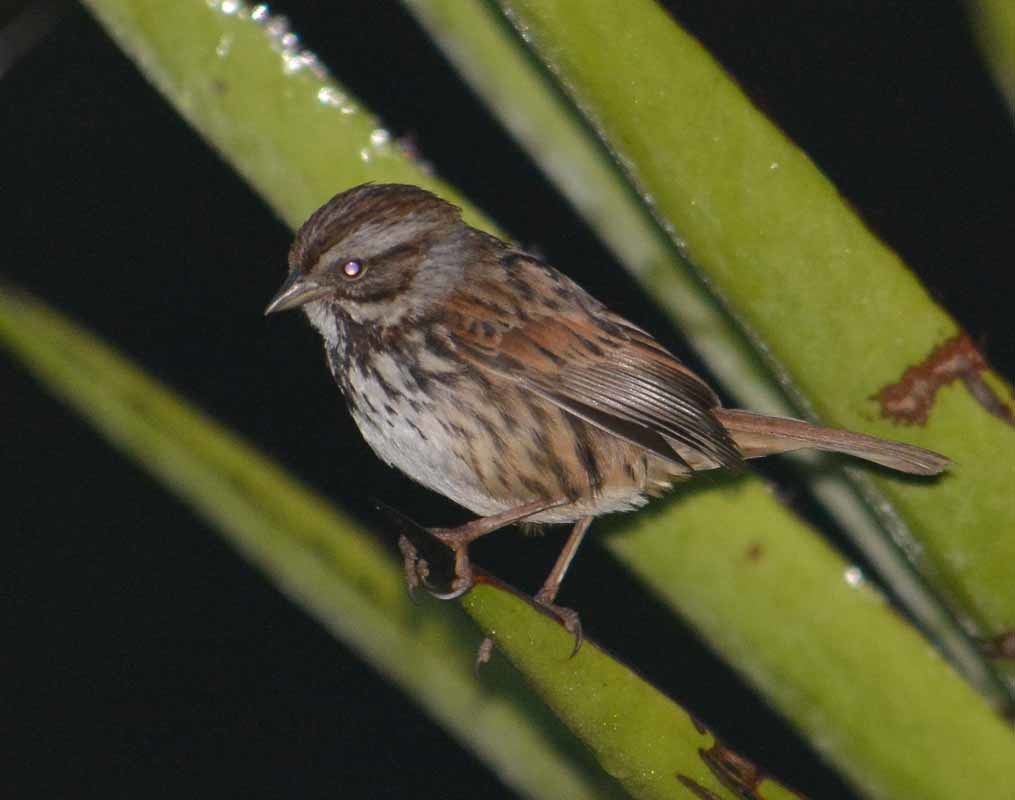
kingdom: Animalia
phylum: Chordata
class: Aves
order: Passeriformes
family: Passerellidae
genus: Melospiza
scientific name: Melospiza melodia
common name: Song sparrow
